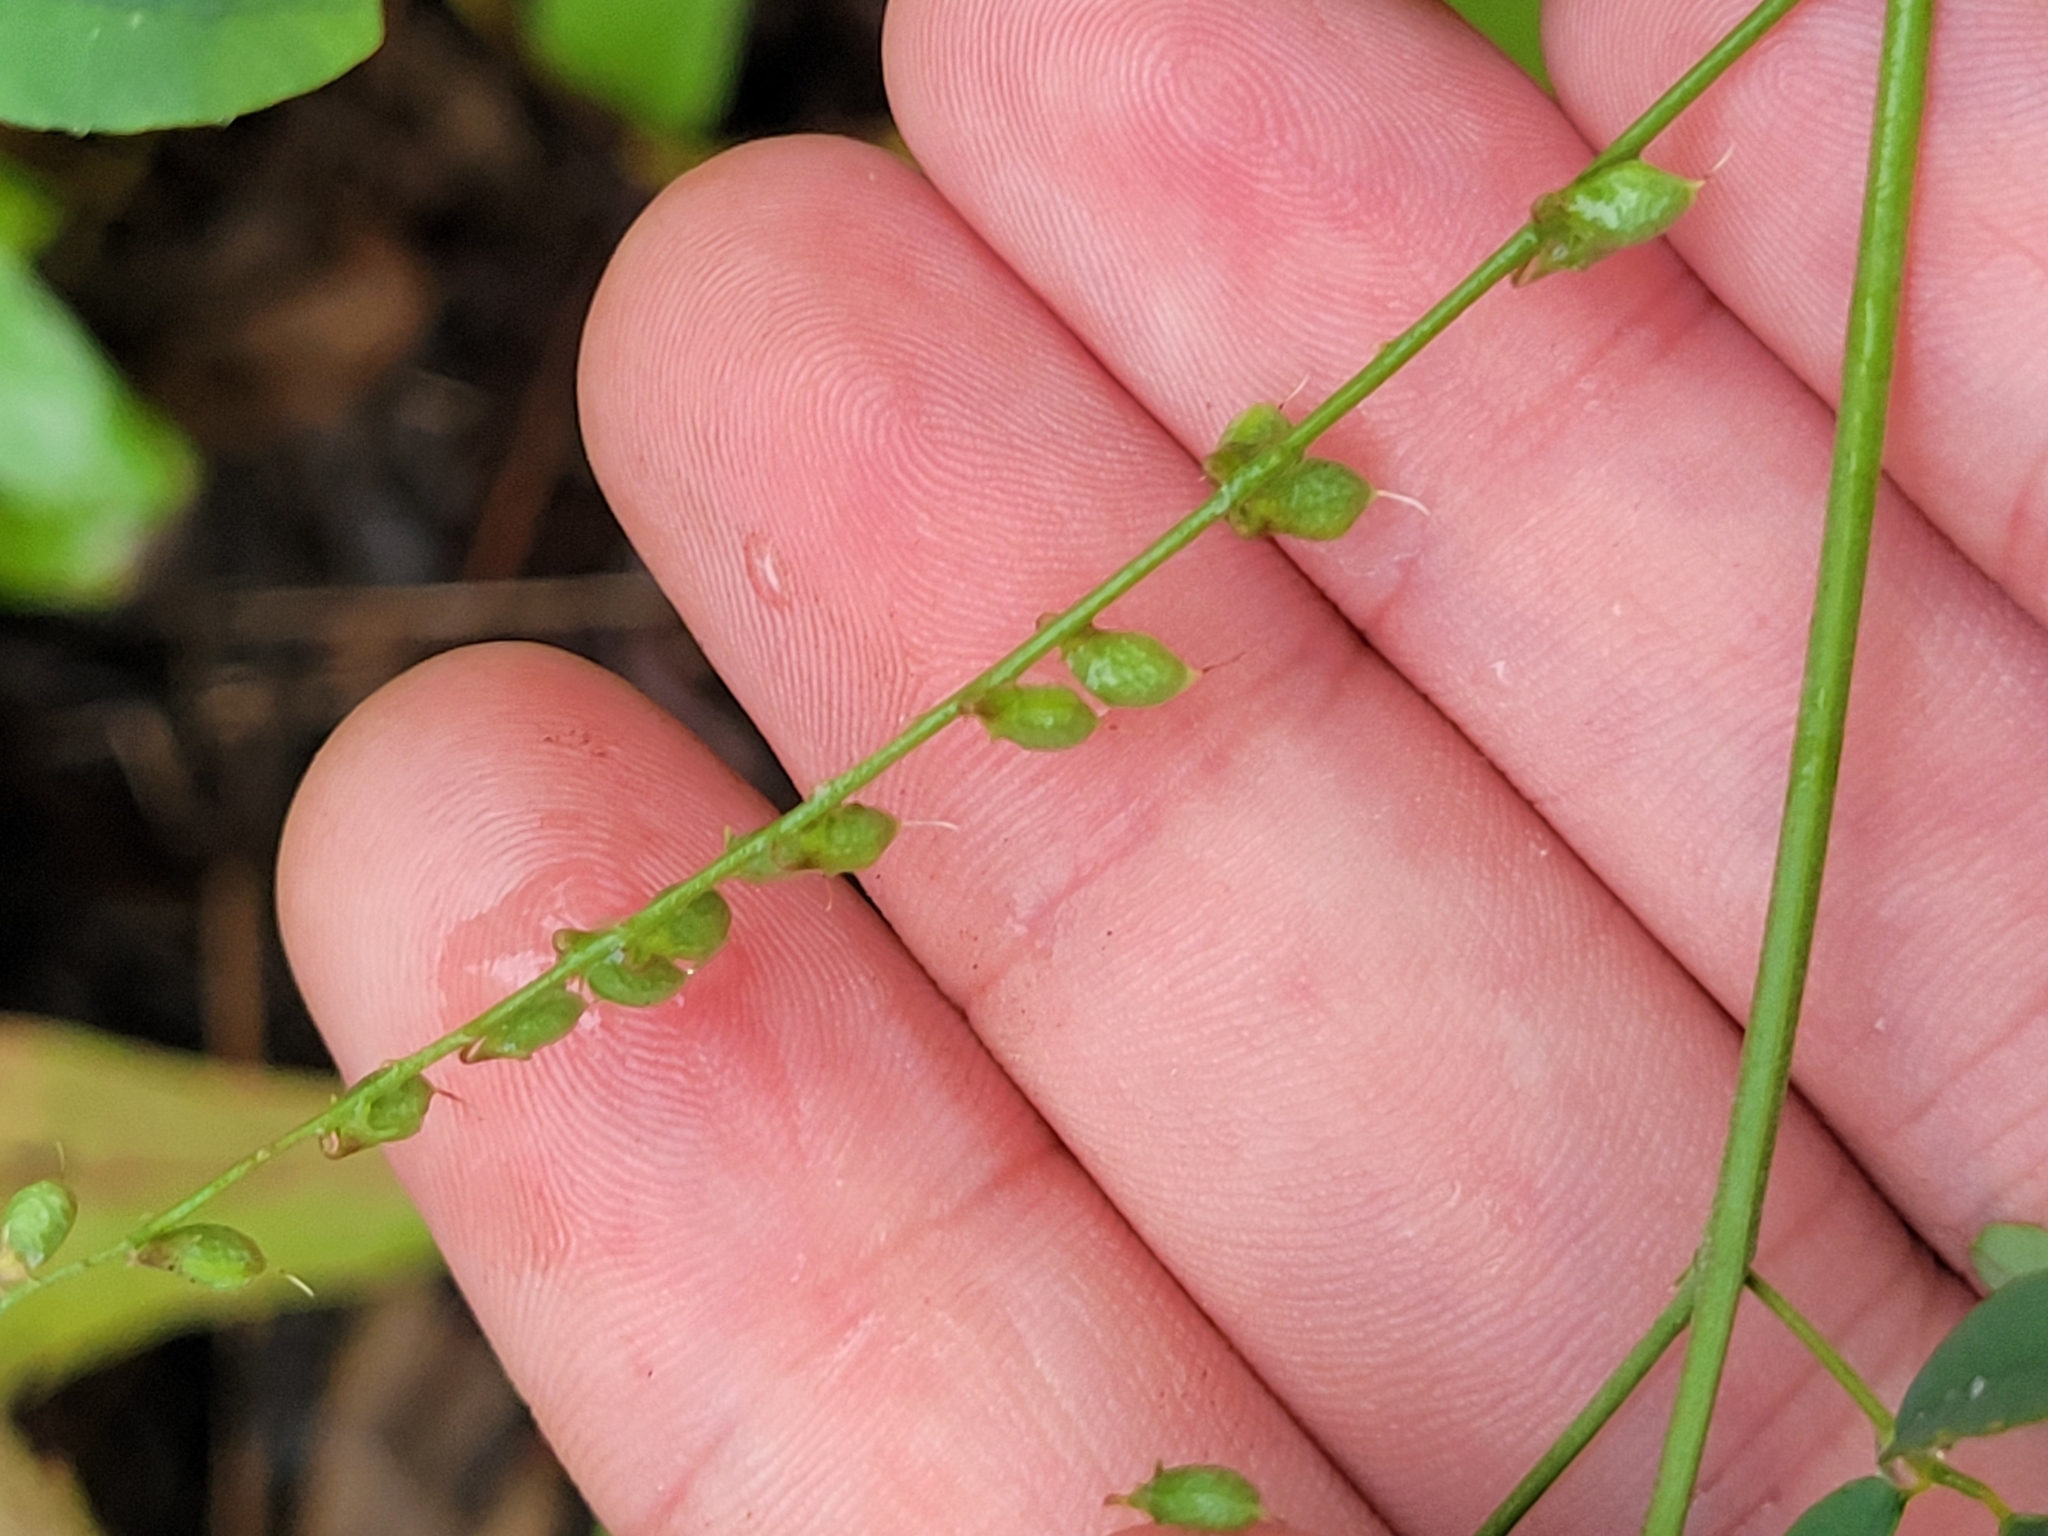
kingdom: Plantae
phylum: Tracheophyta
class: Magnoliopsida
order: Fabales
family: Fabaceae
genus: Melilotus
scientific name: Melilotus albus
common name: White melilot
